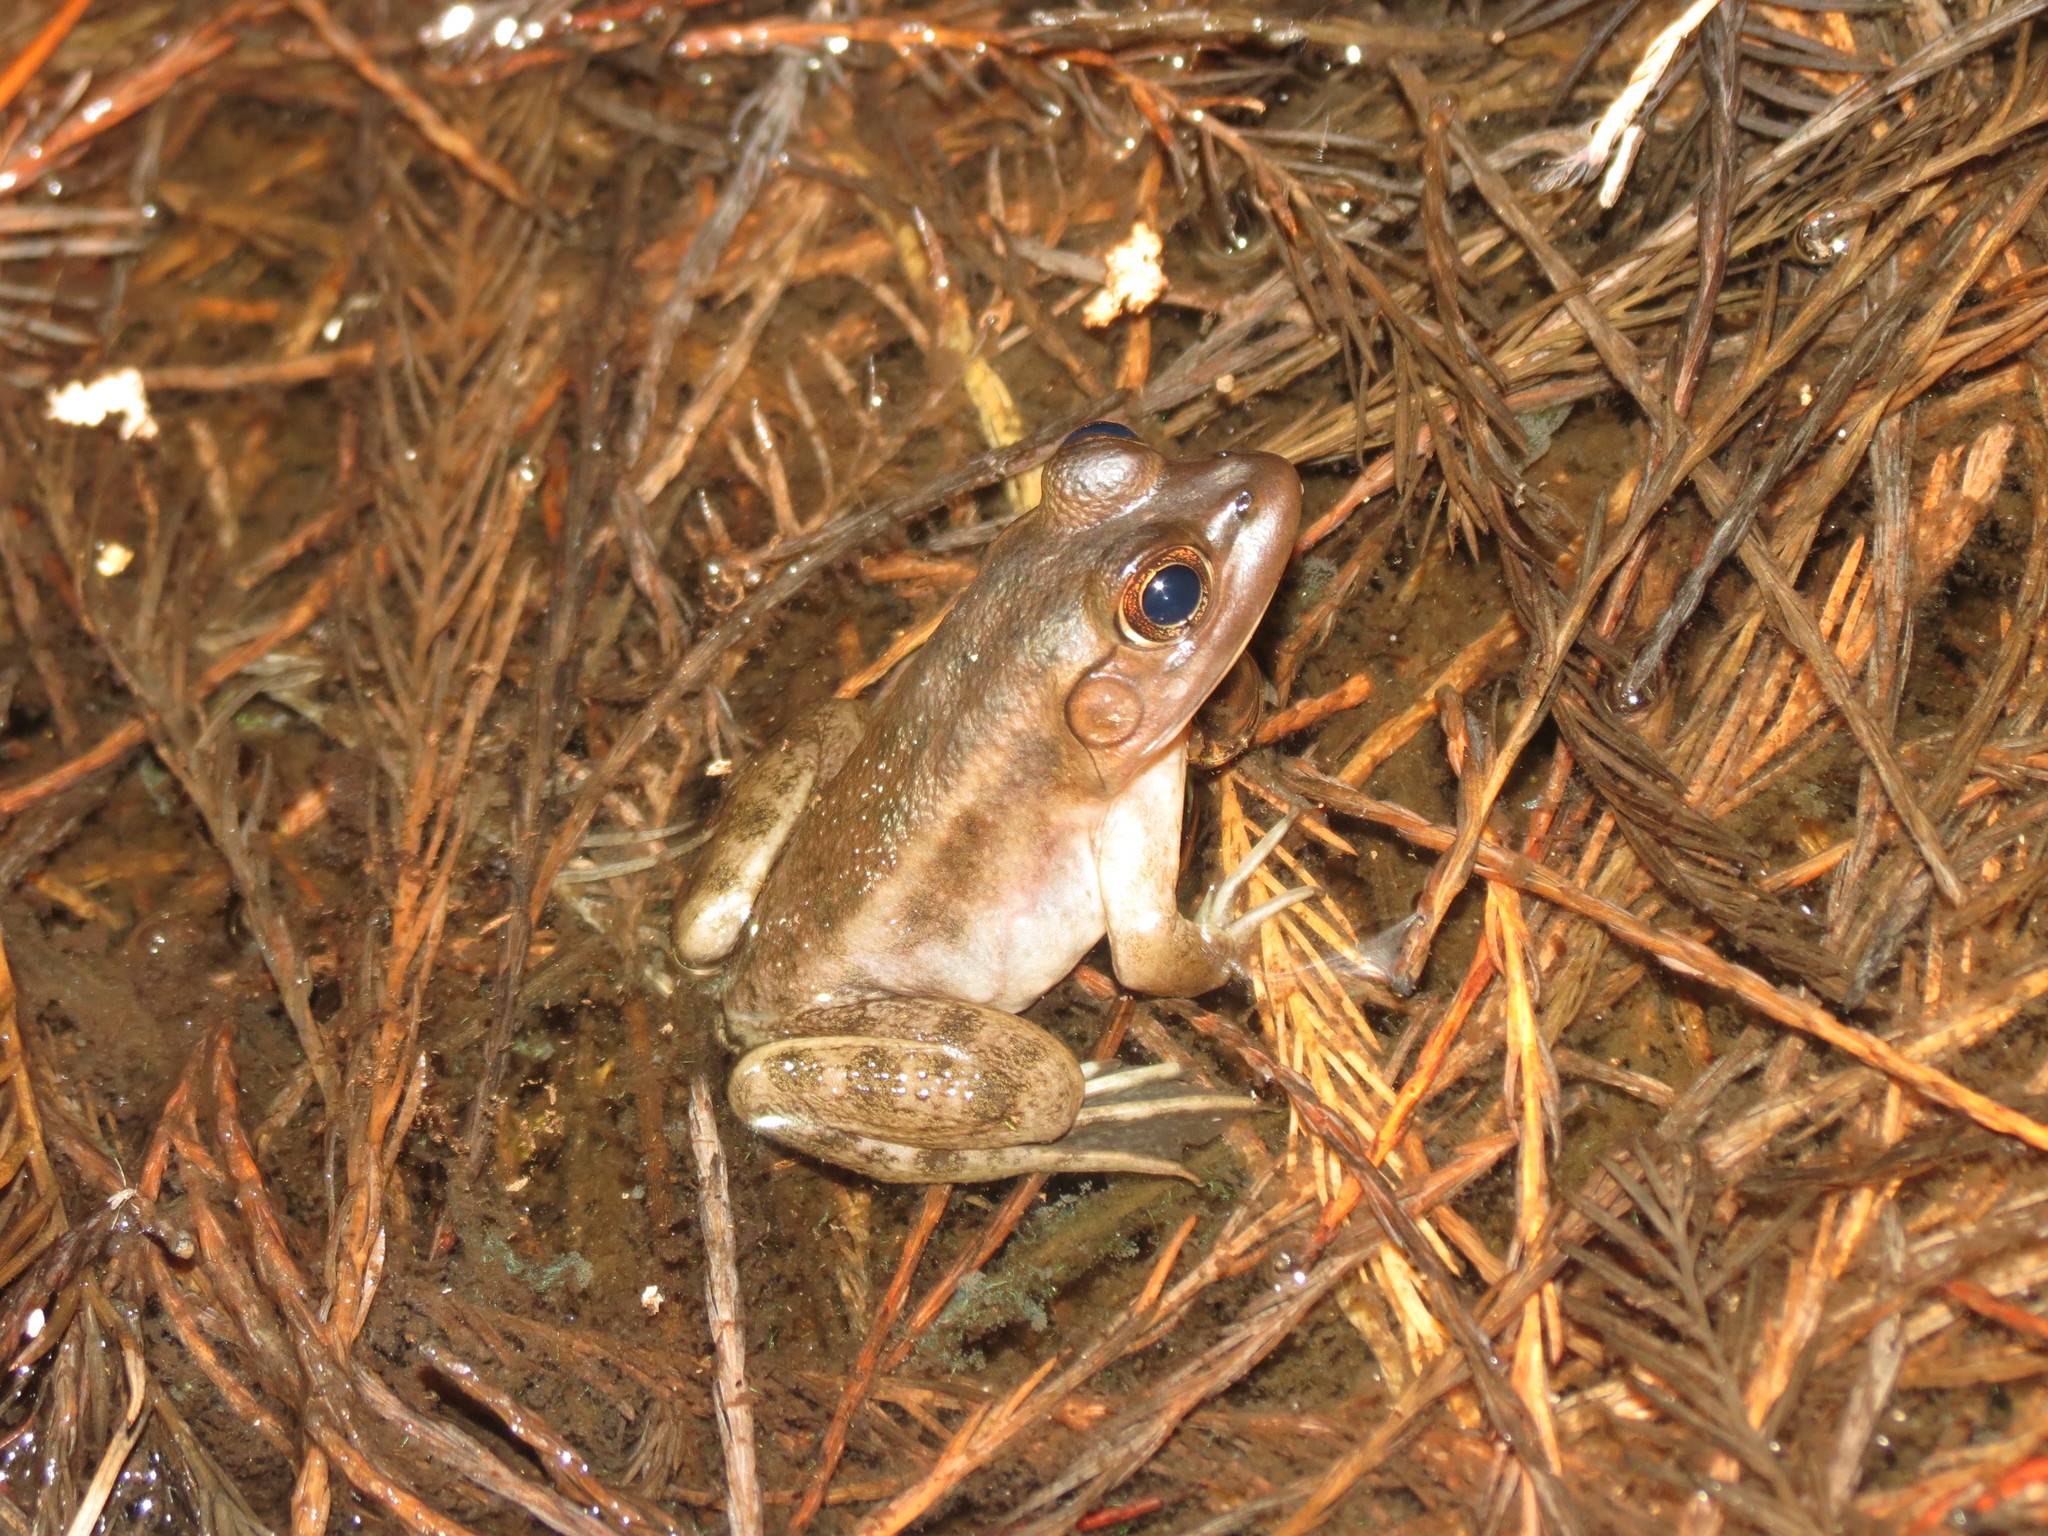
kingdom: Animalia
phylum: Chordata
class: Amphibia
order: Anura
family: Ranidae
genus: Lithobates
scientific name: Lithobates grylio
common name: Pig frog
